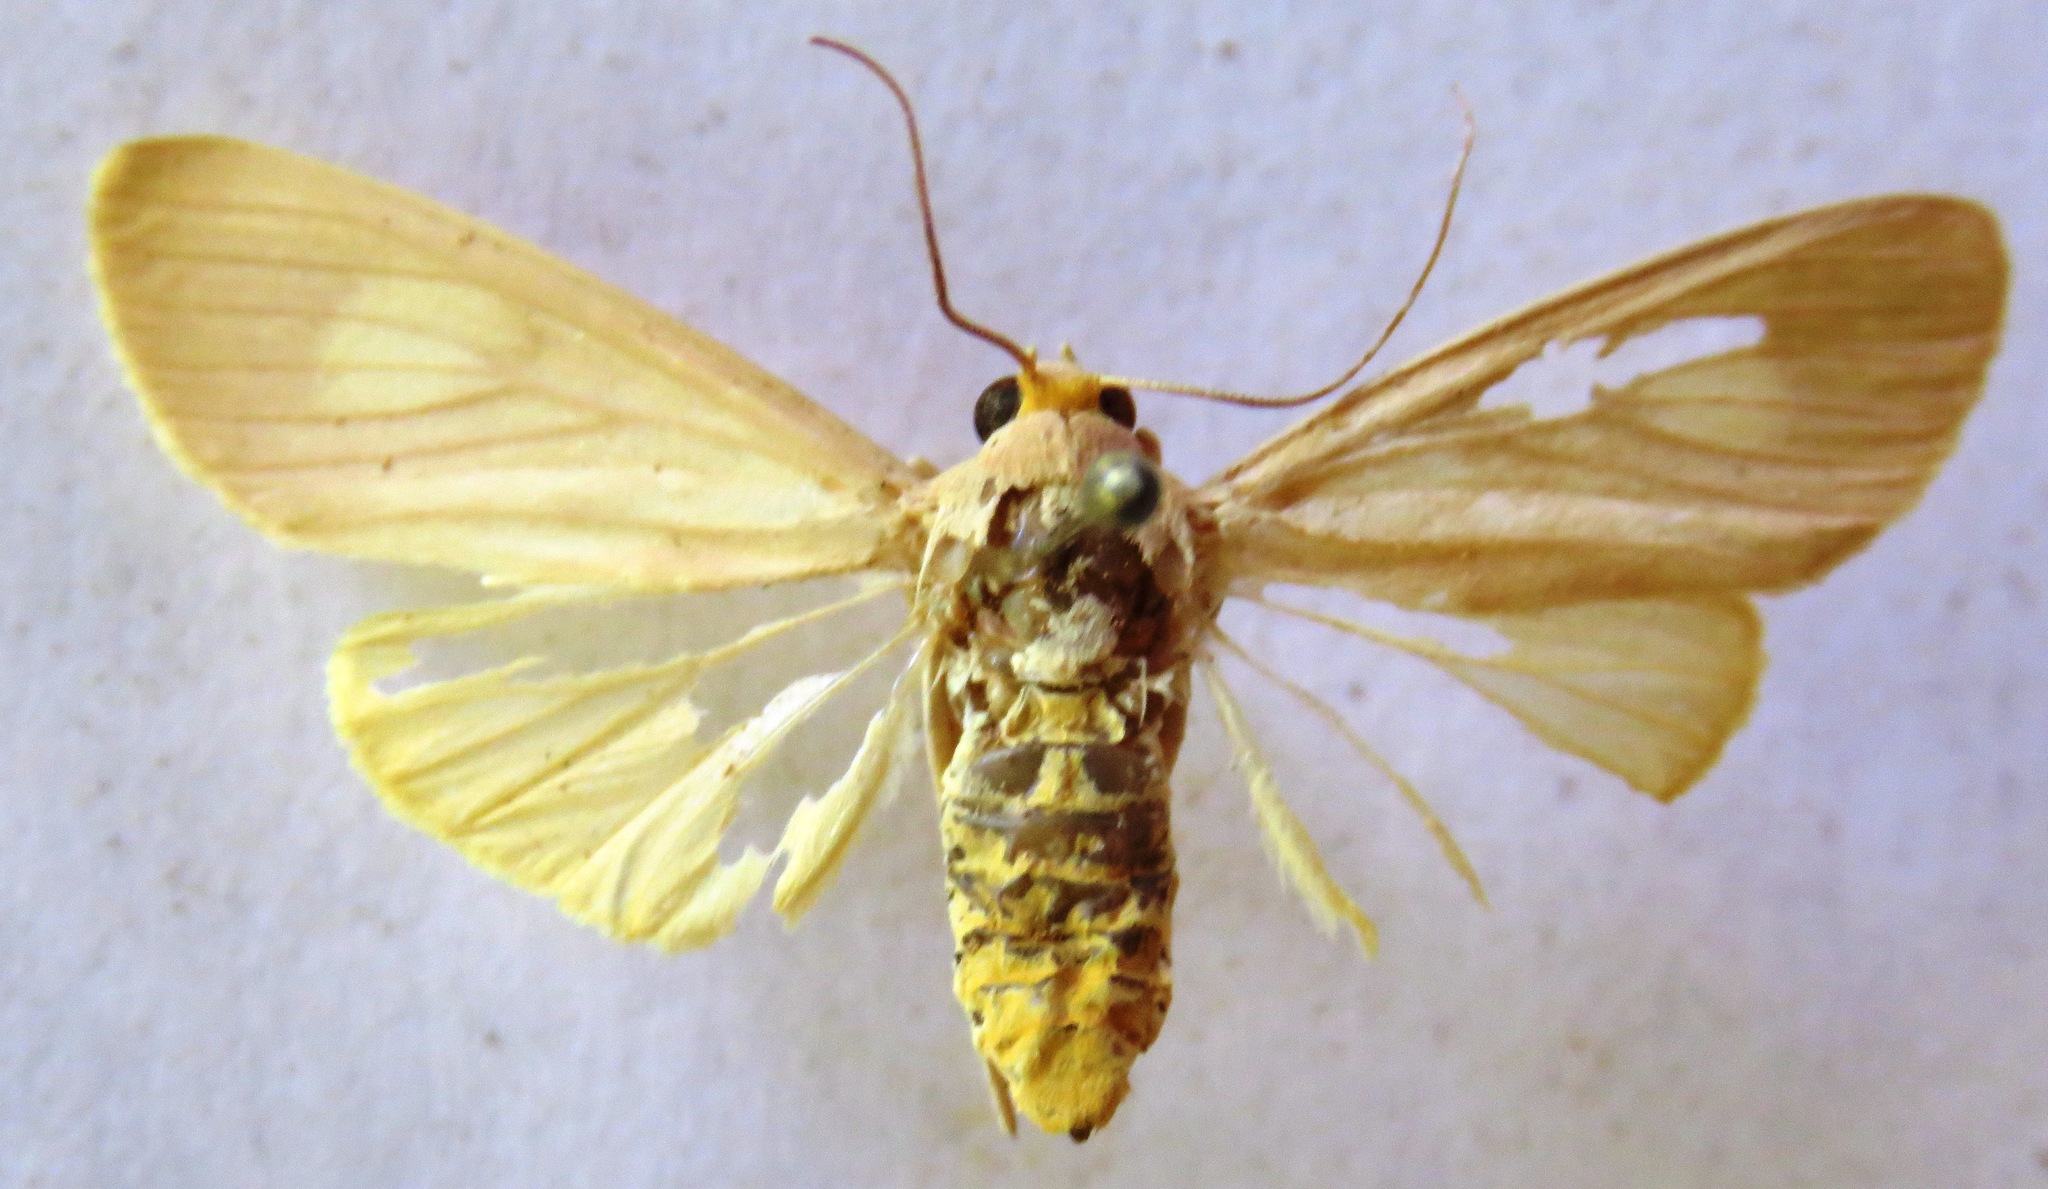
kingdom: Animalia
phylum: Arthropoda
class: Insecta
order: Lepidoptera
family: Erebidae
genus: Neritos
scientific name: Neritos leucoplaga
